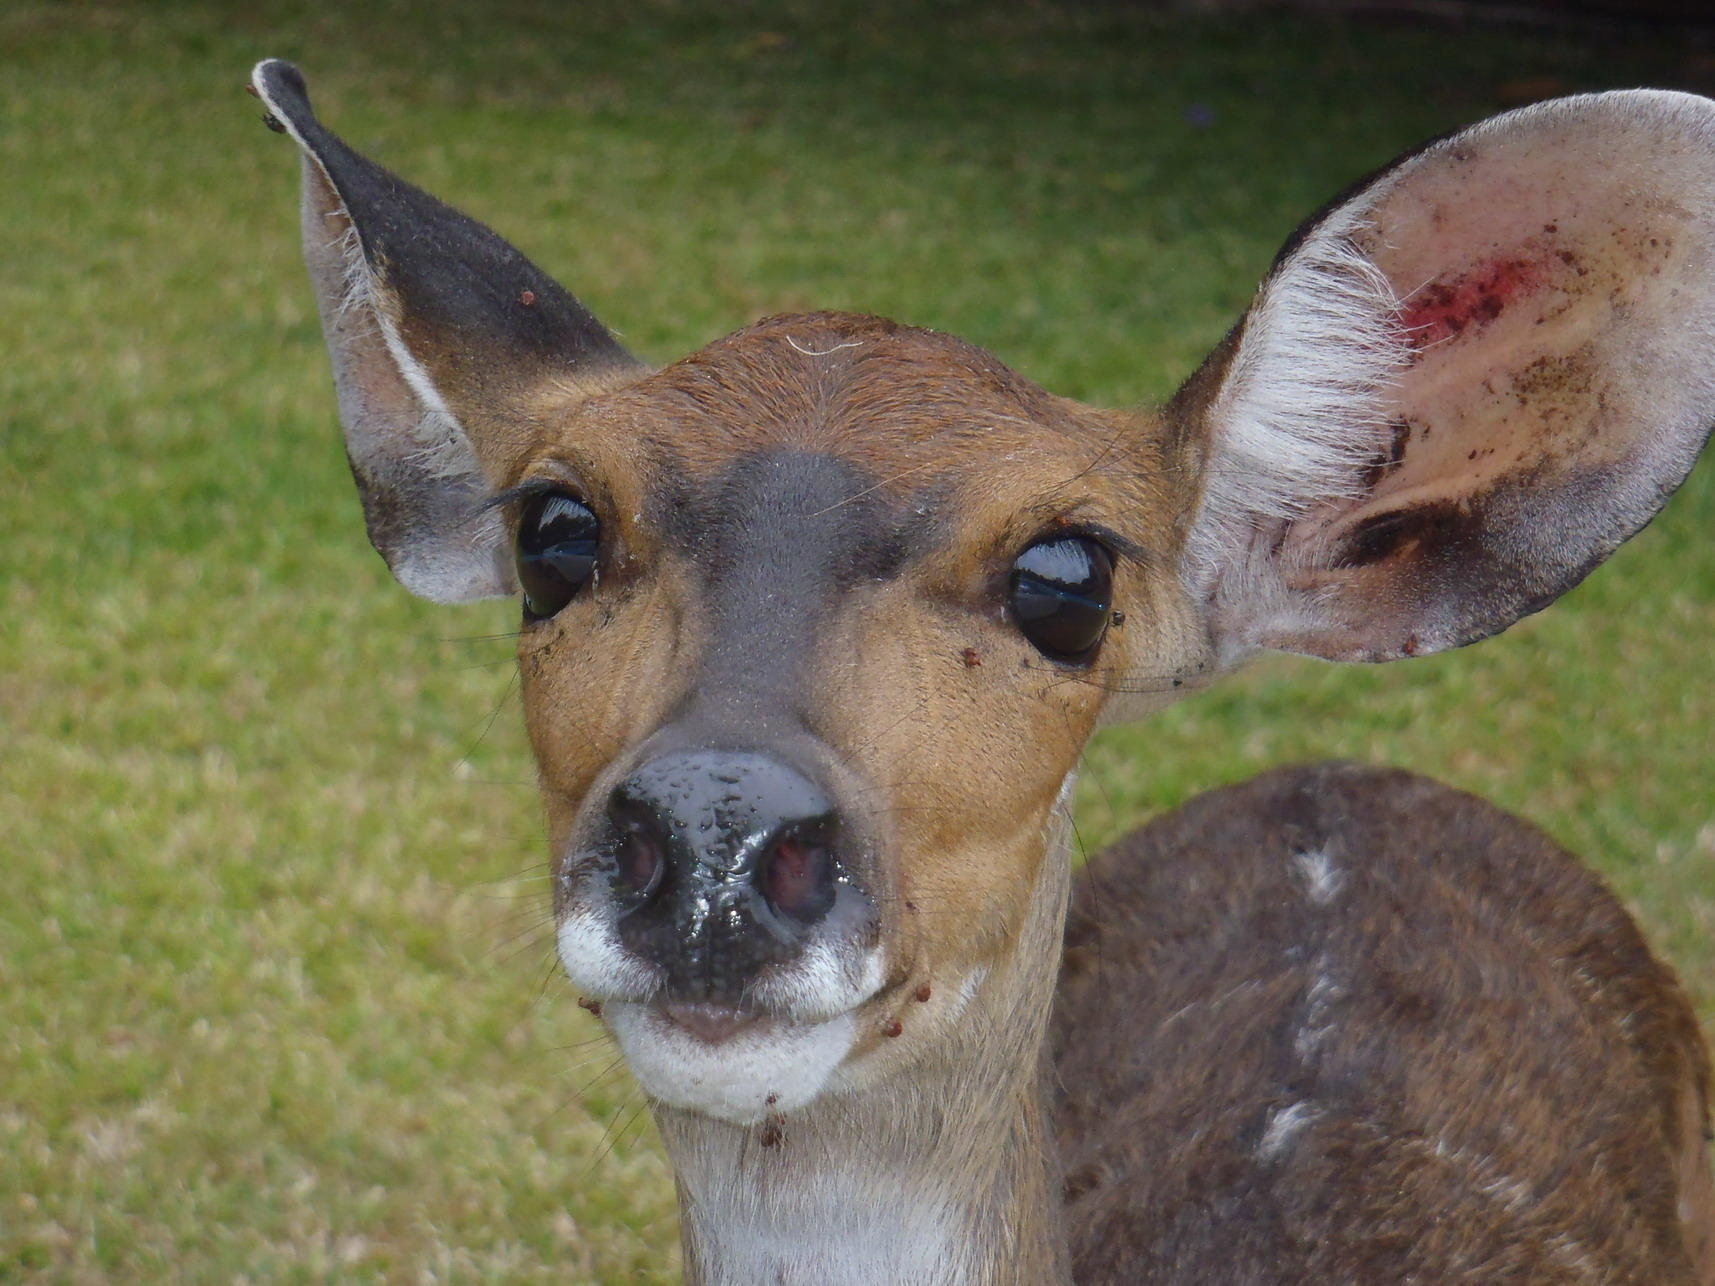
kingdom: Animalia
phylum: Chordata
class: Mammalia
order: Artiodactyla
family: Bovidae
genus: Tragelaphus
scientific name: Tragelaphus scriptus
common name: Bushbuck
